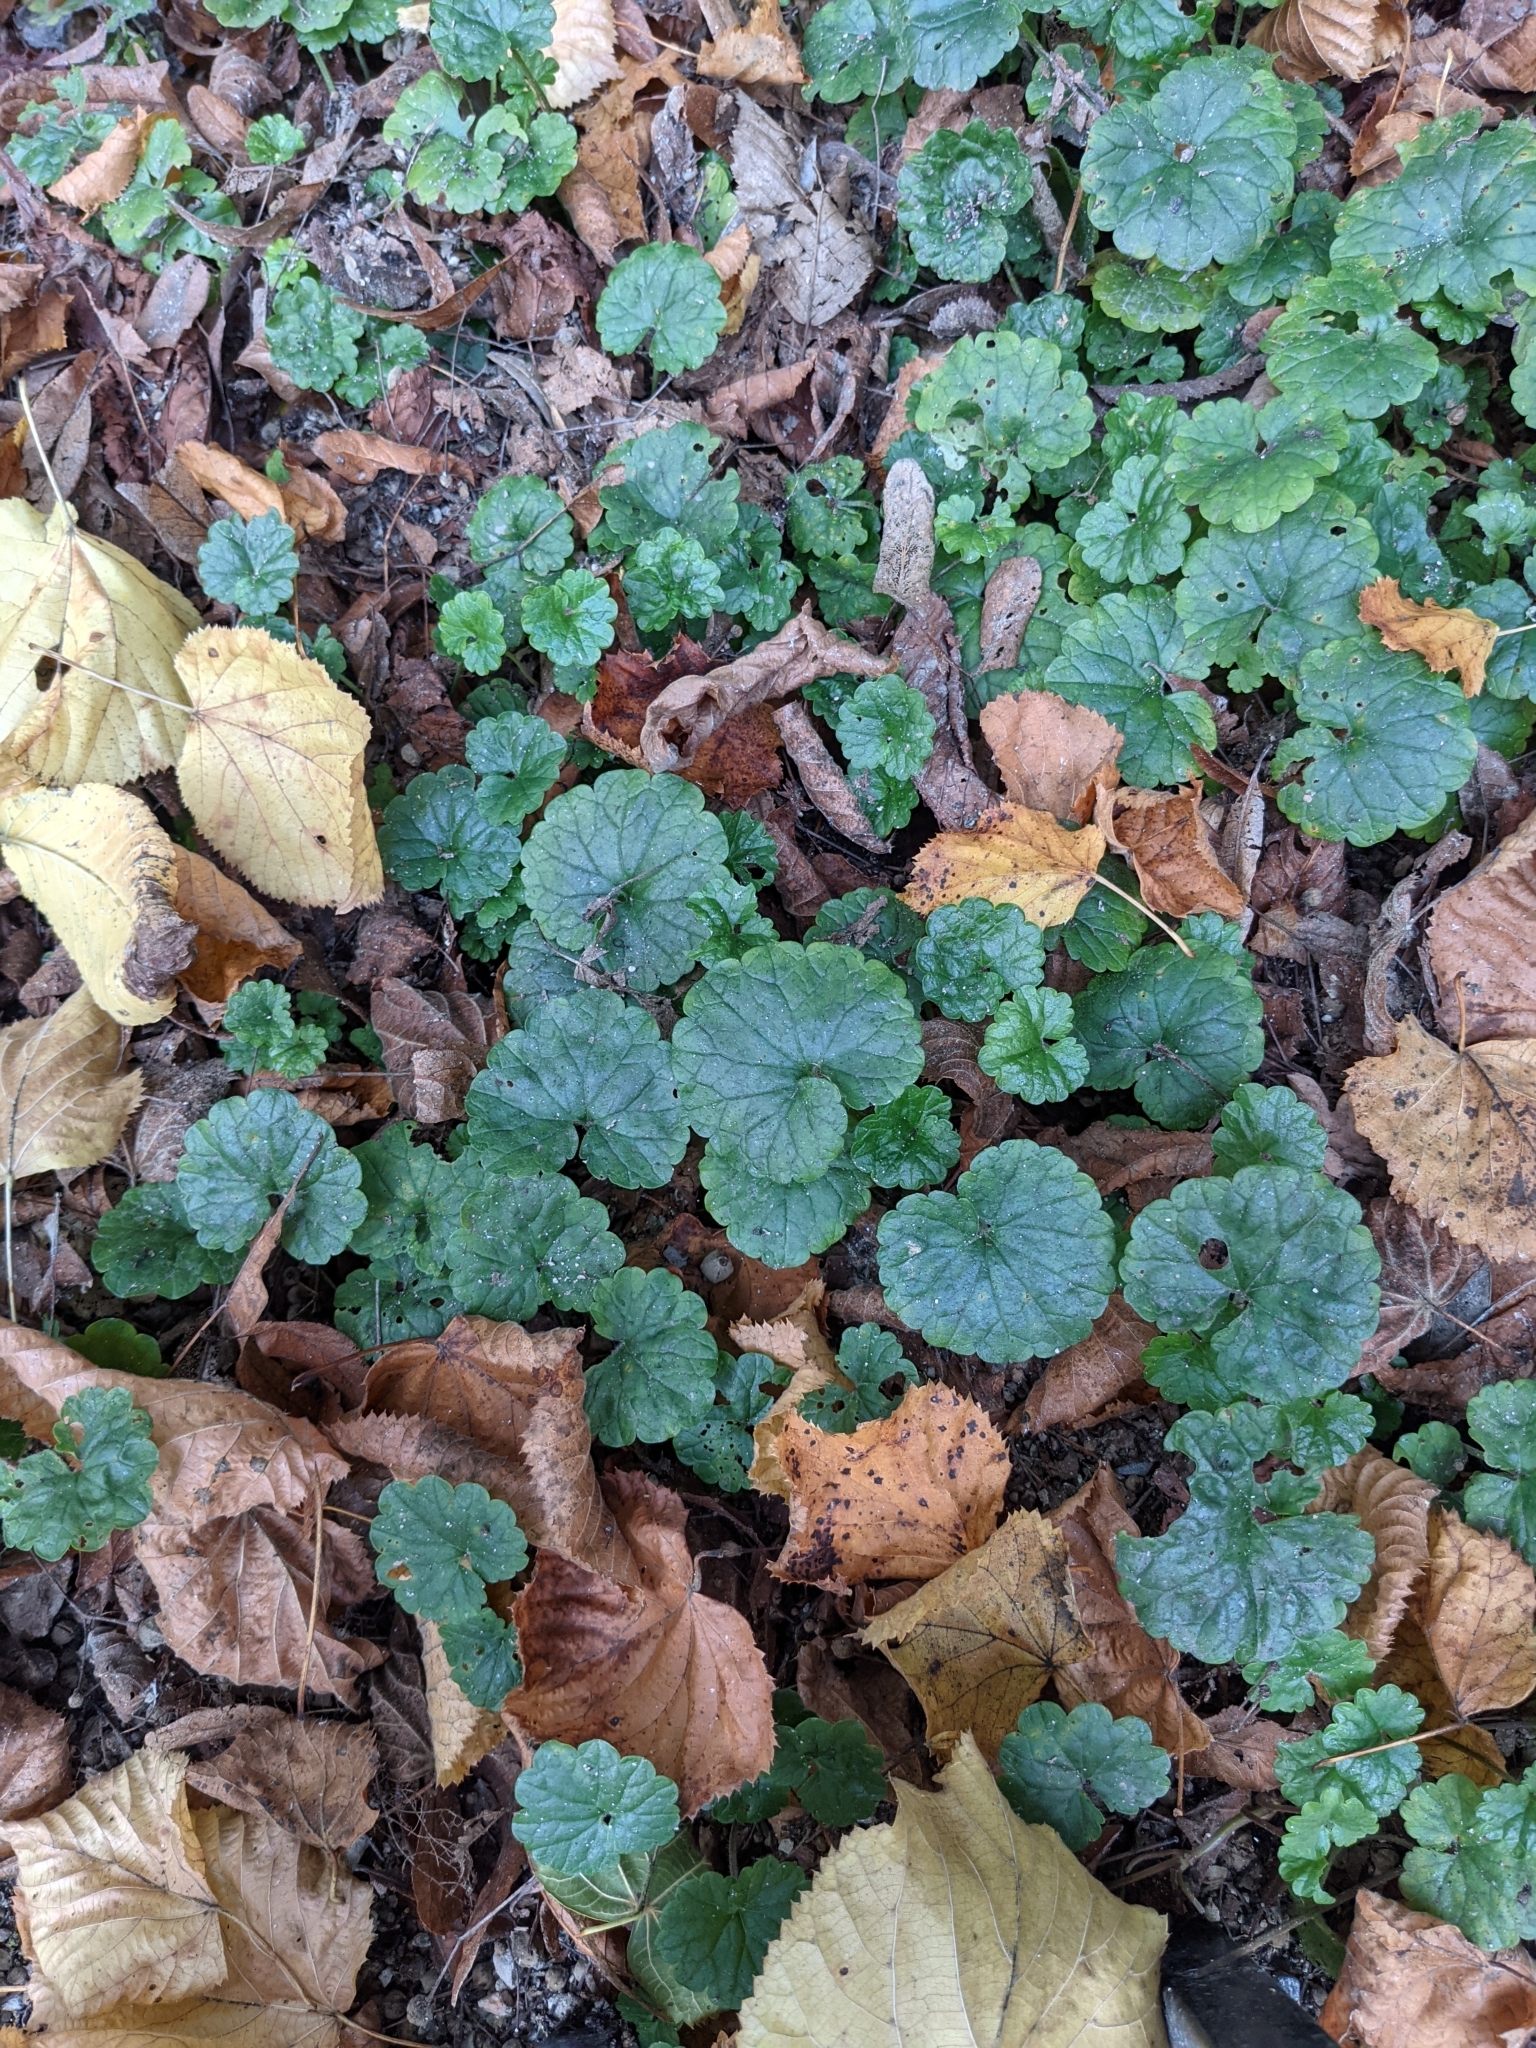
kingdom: Plantae
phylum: Tracheophyta
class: Magnoliopsida
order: Lamiales
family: Lamiaceae
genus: Glechoma
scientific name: Glechoma hederacea
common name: Ground ivy
